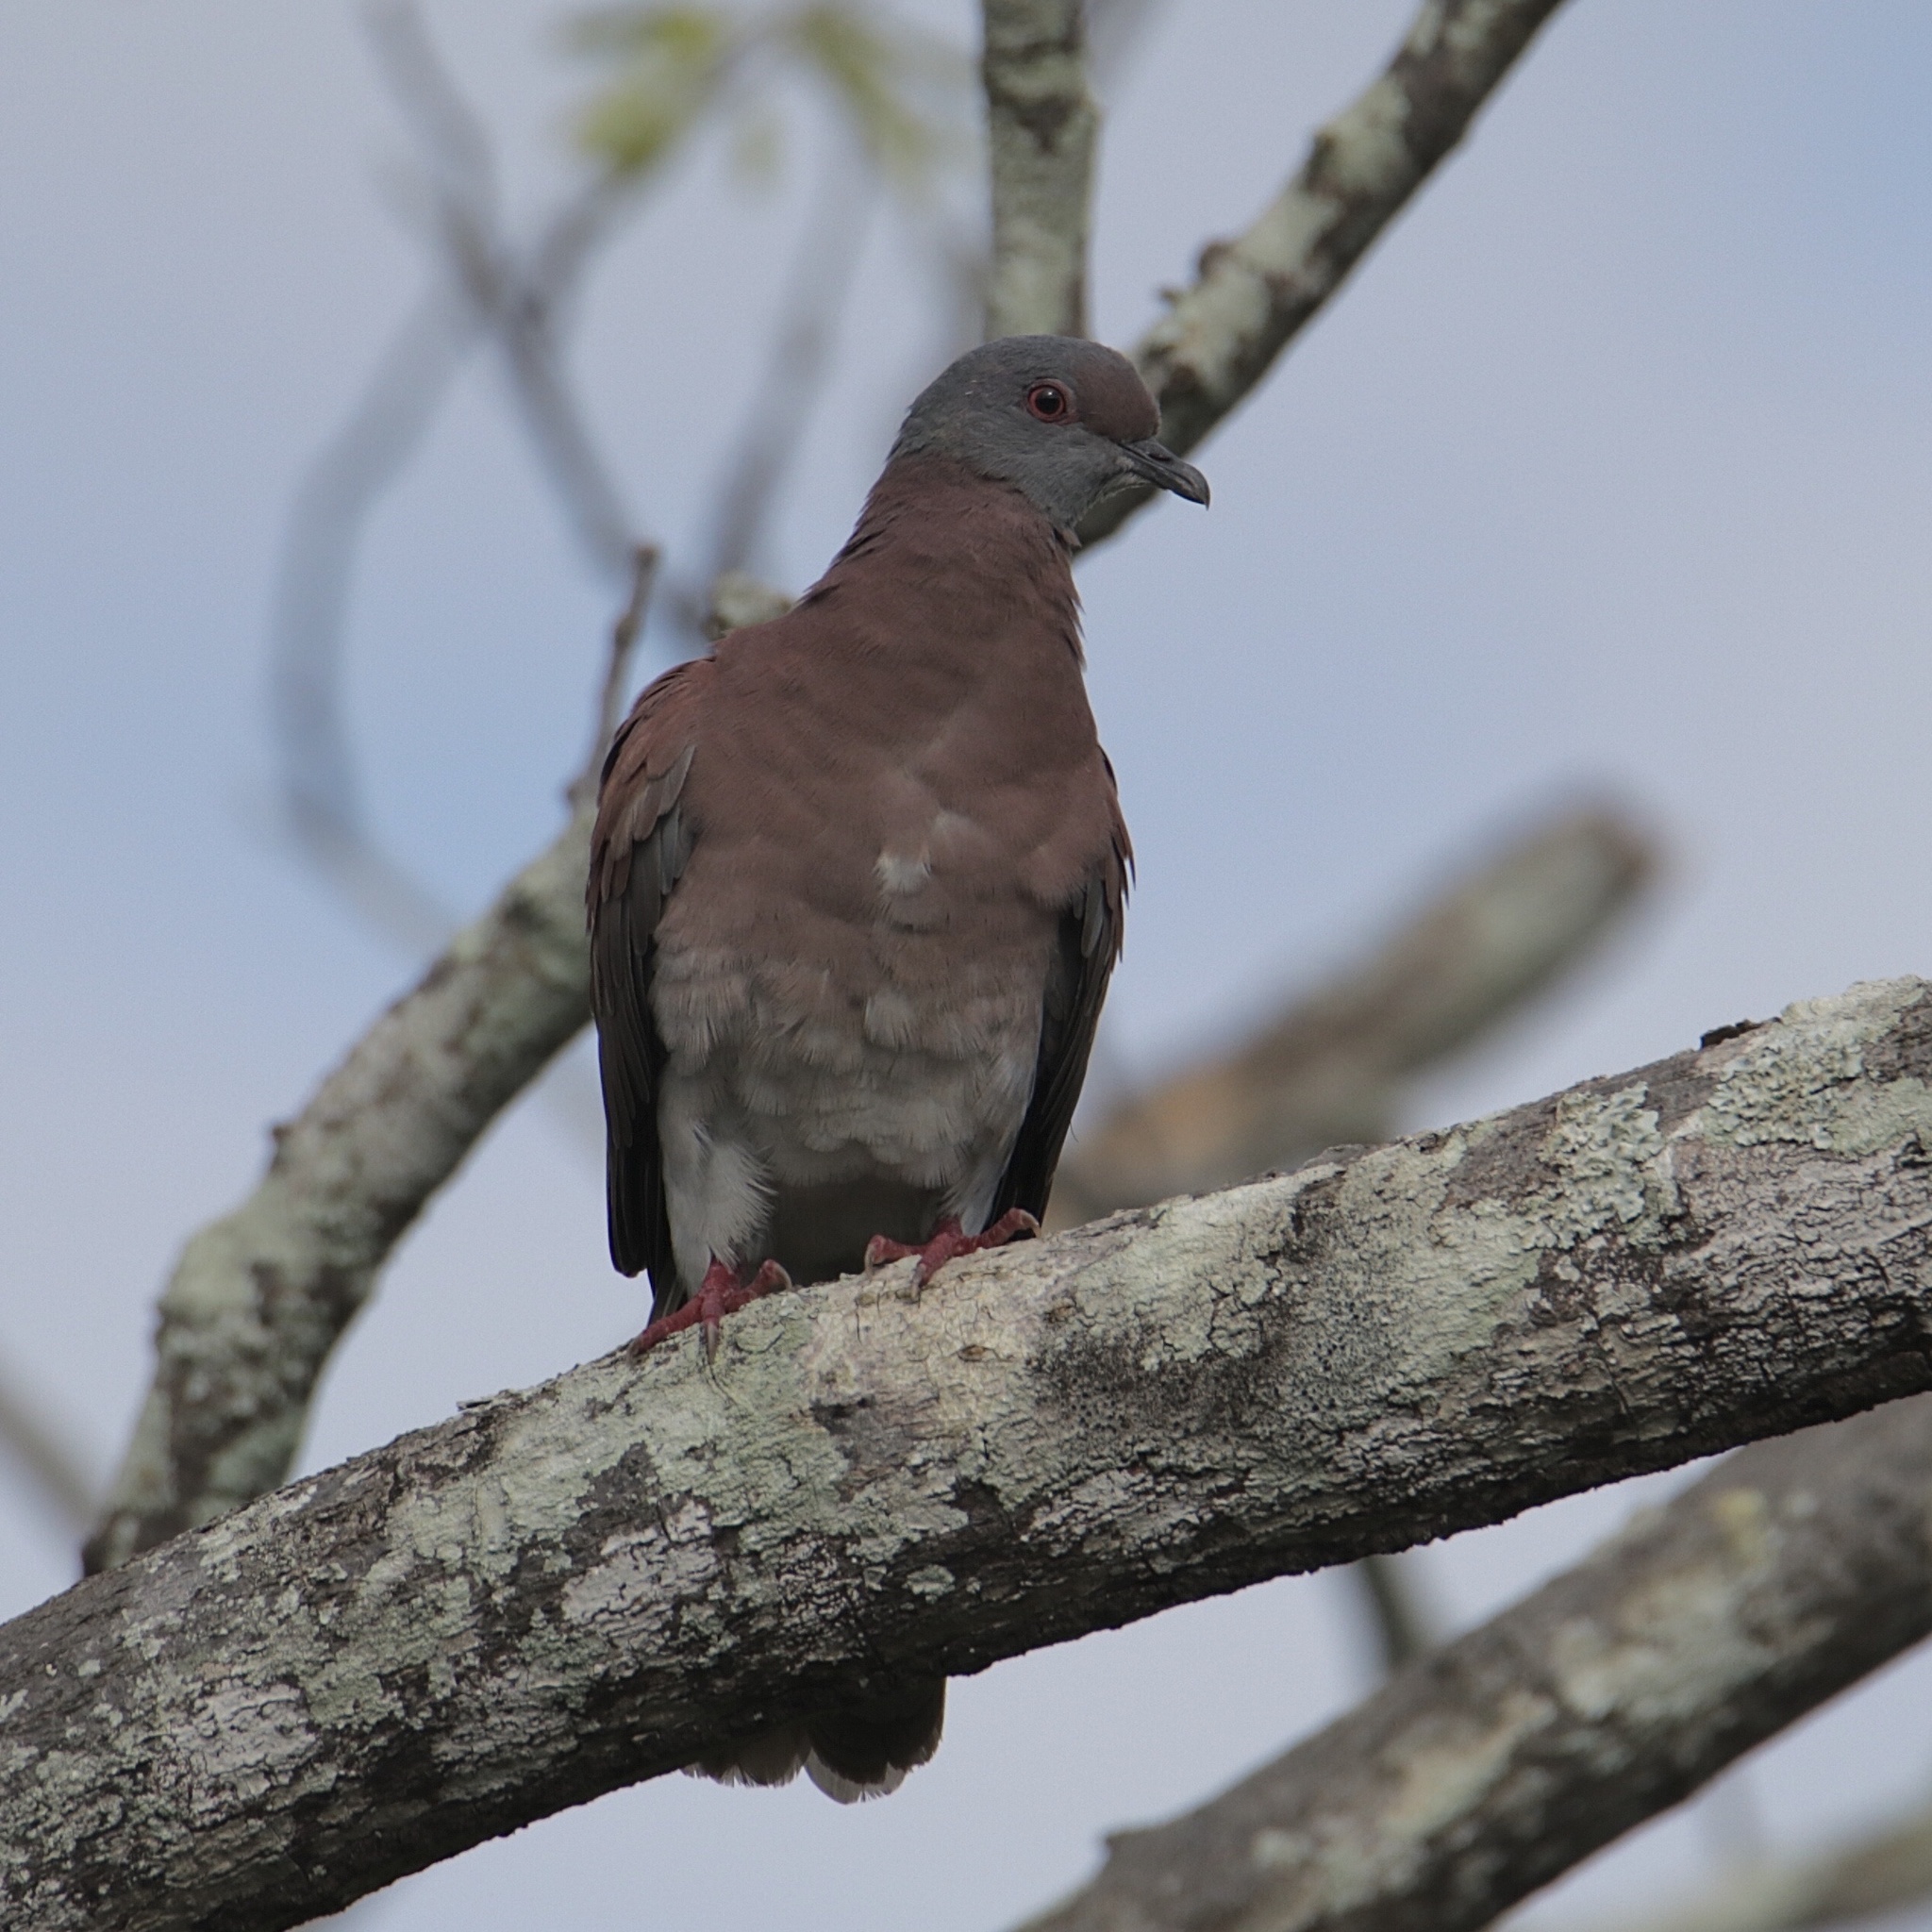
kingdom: Animalia
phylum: Chordata
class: Aves
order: Columbiformes
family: Columbidae
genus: Patagioenas
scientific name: Patagioenas cayennensis
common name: Pale-vented pigeon
